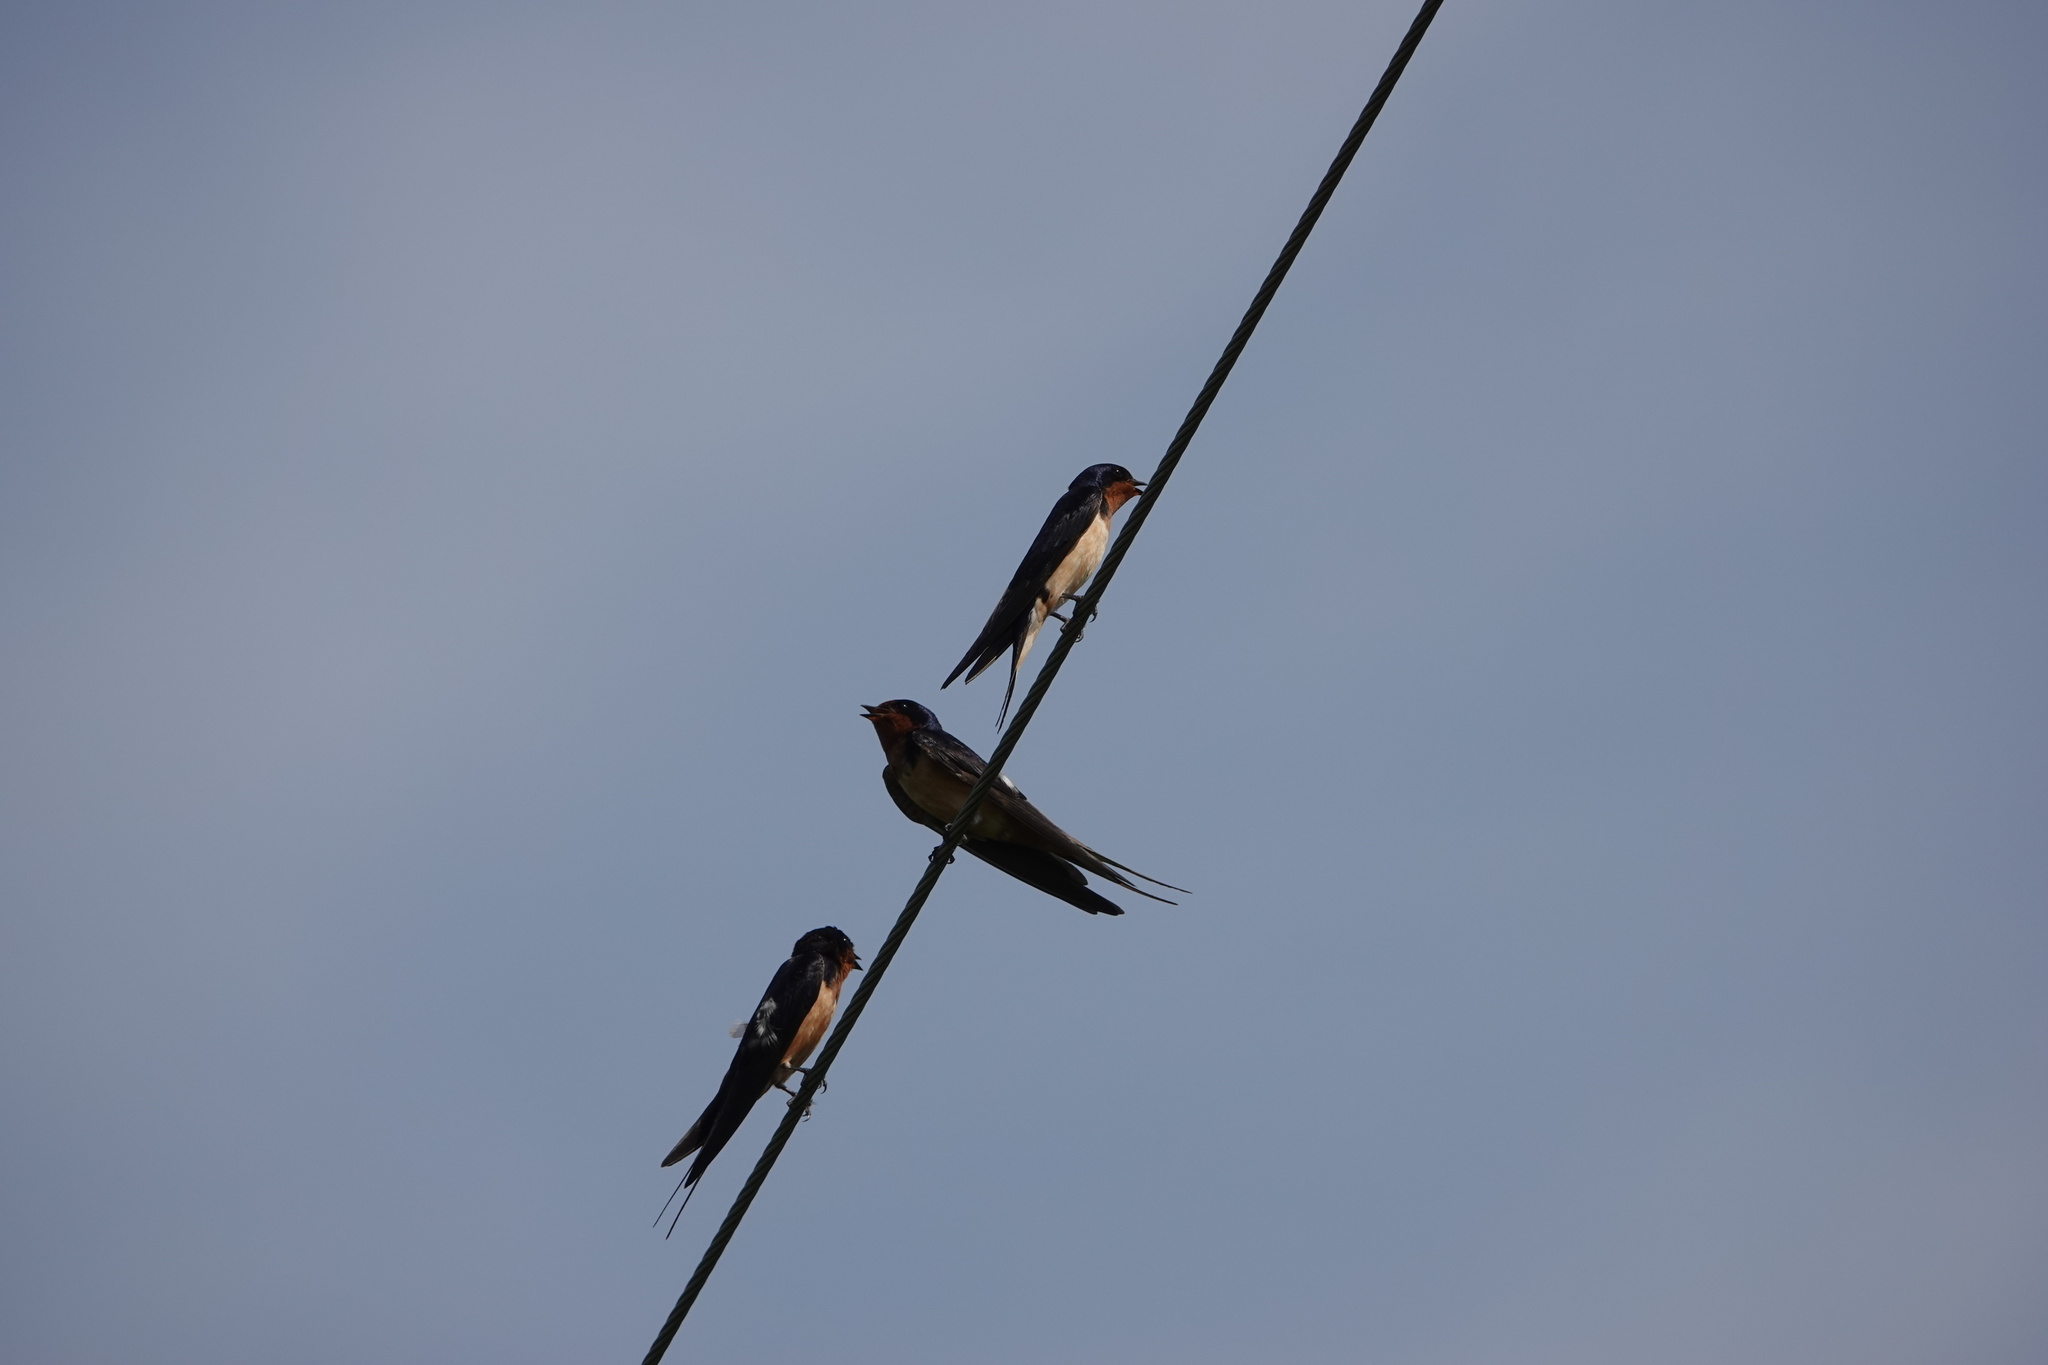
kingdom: Animalia
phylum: Chordata
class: Aves
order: Passeriformes
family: Hirundinidae
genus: Hirundo
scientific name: Hirundo rustica
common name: Barn swallow
